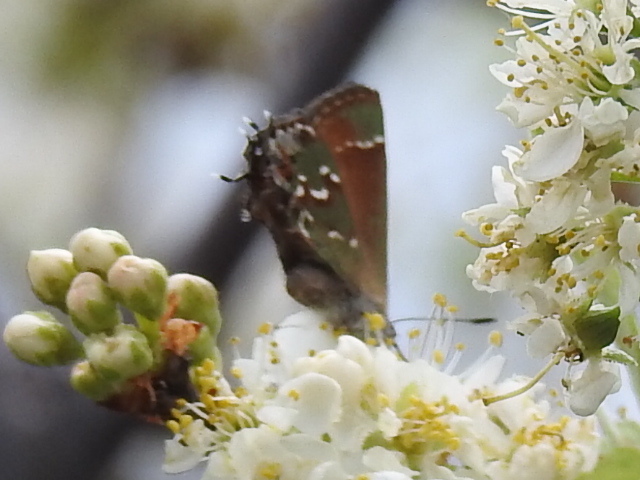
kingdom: Animalia
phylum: Arthropoda
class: Insecta
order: Lepidoptera
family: Lycaenidae
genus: Mitoura
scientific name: Mitoura gryneus
